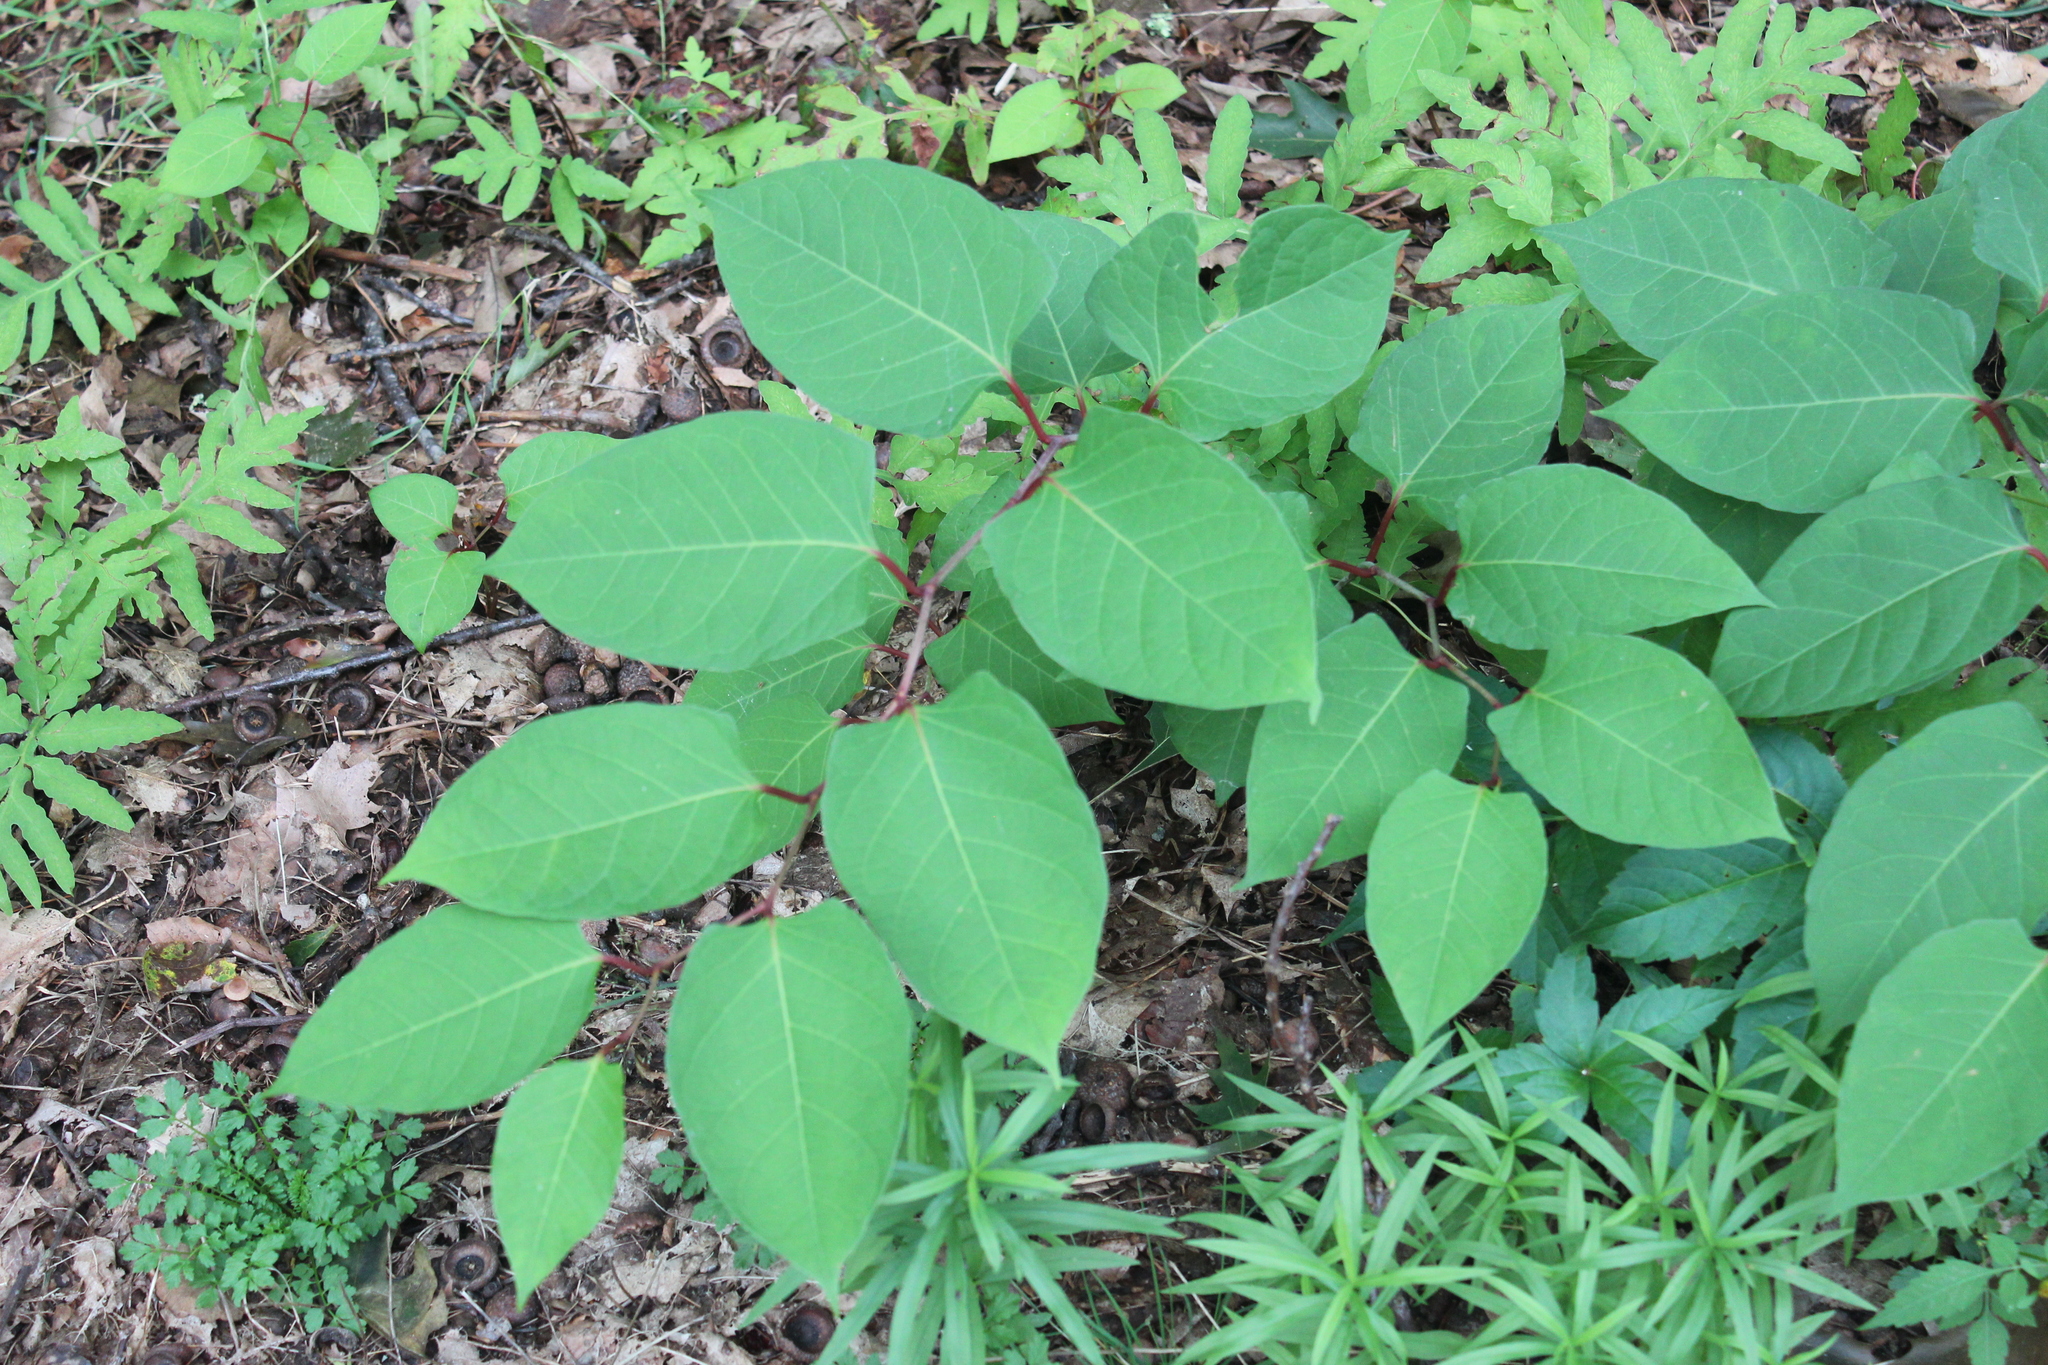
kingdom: Plantae
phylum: Tracheophyta
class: Magnoliopsida
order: Caryophyllales
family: Polygonaceae
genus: Reynoutria
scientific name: Reynoutria japonica
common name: Japanese knotweed
